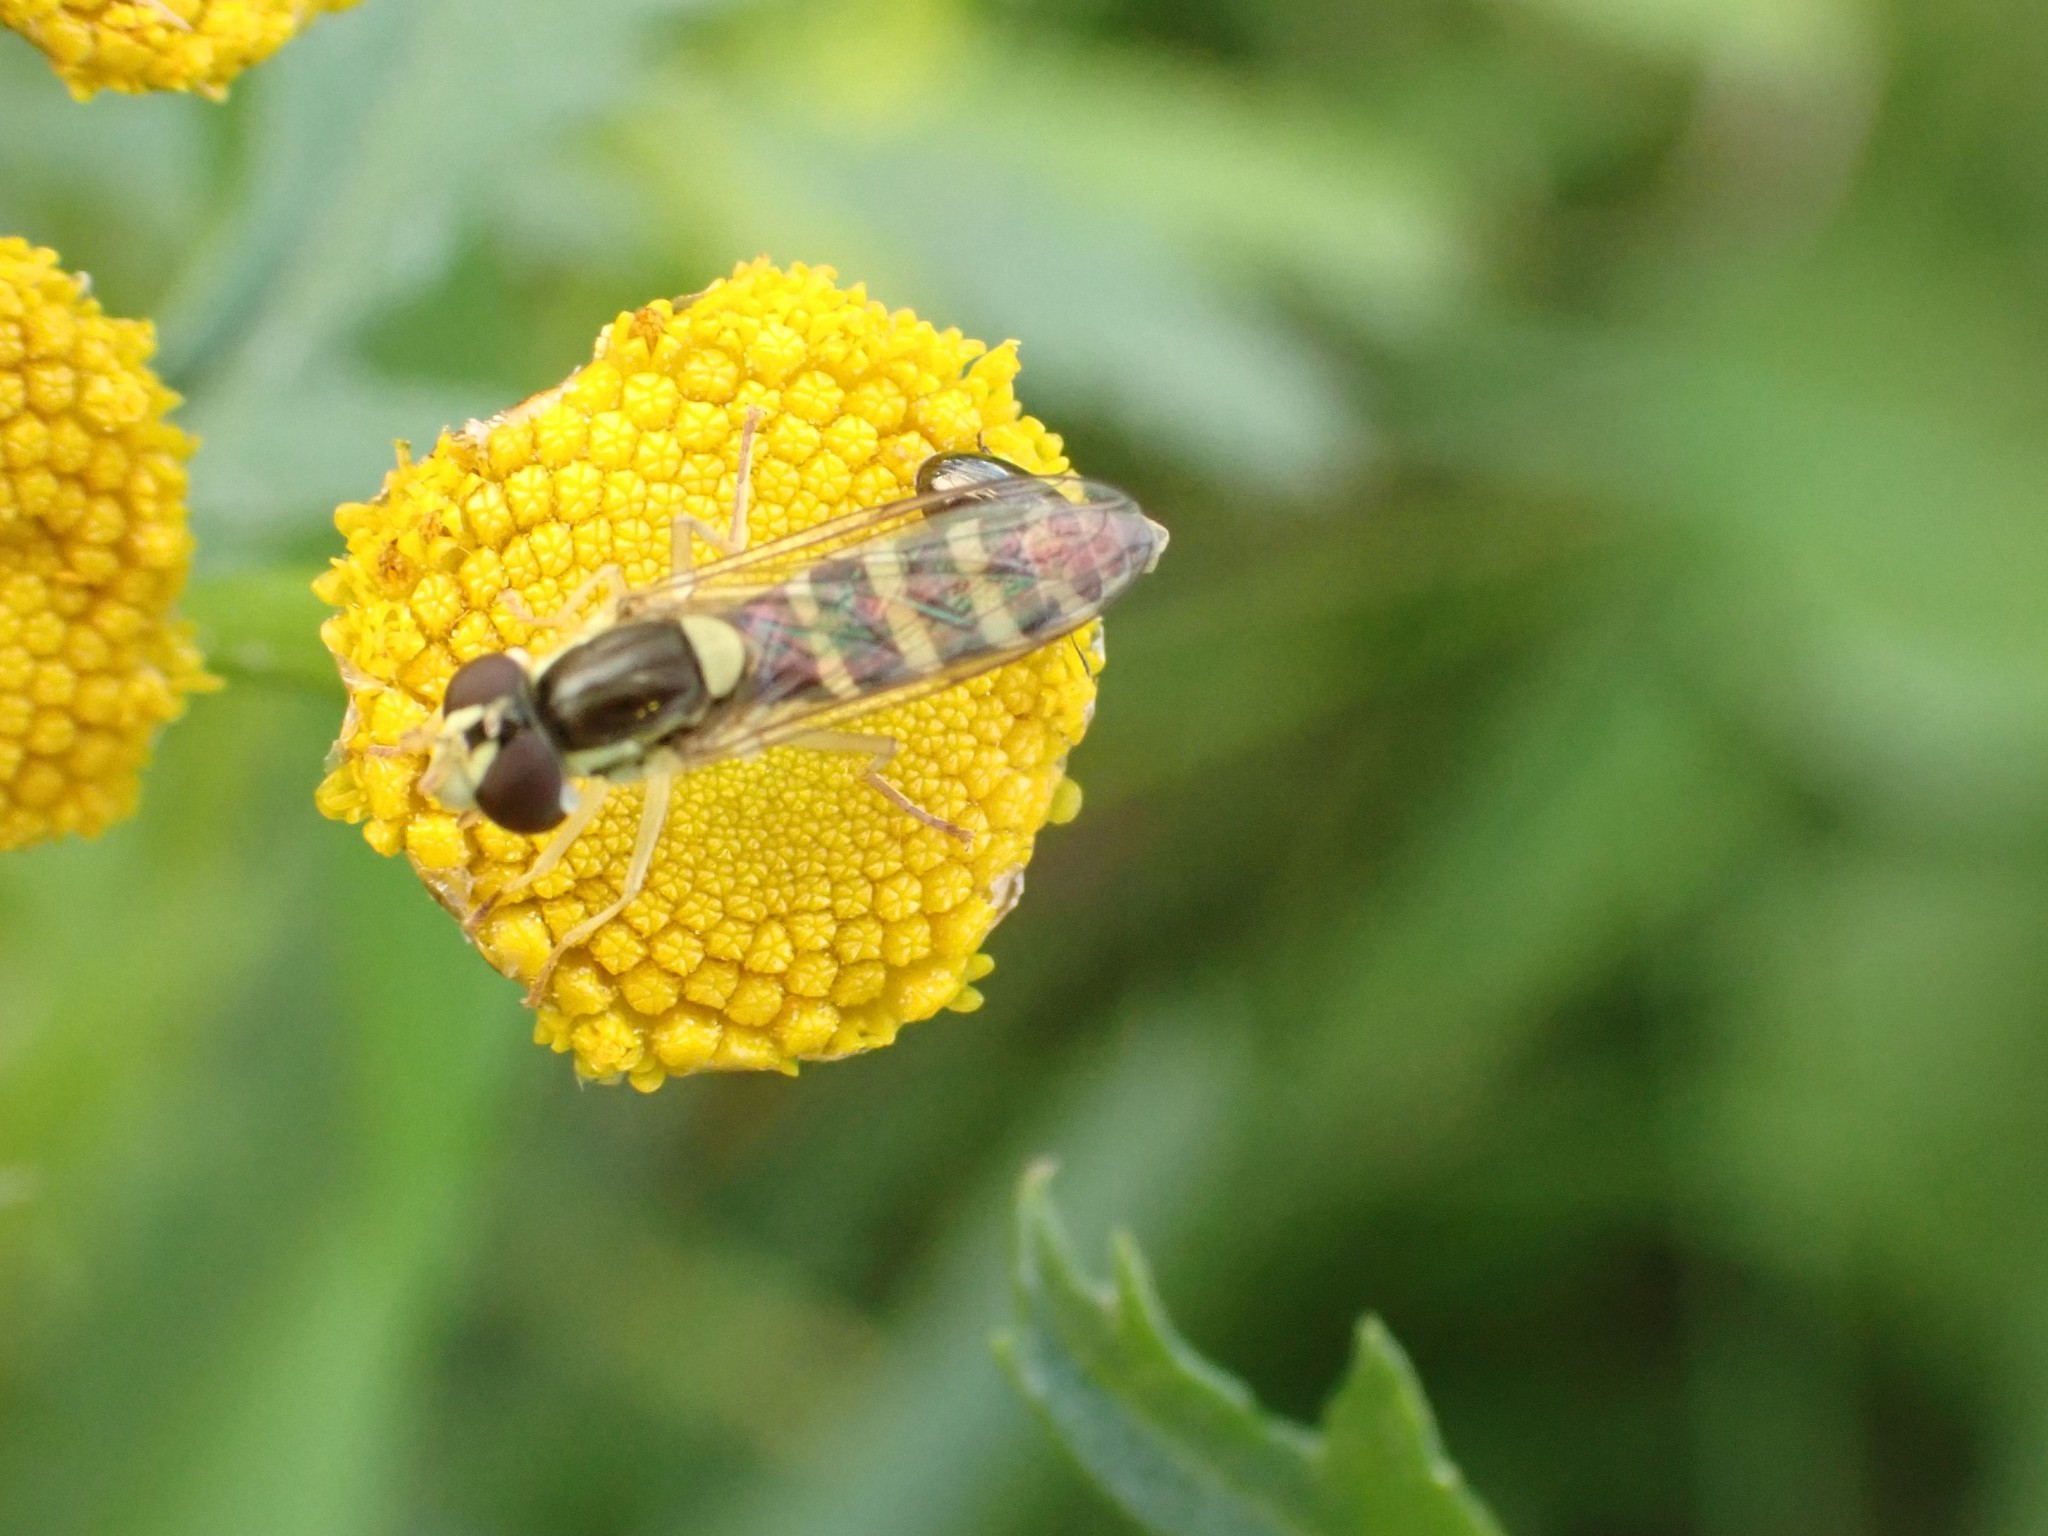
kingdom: Animalia
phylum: Arthropoda
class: Insecta
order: Diptera
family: Syrphidae
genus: Sphaerophoria
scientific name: Sphaerophoria
